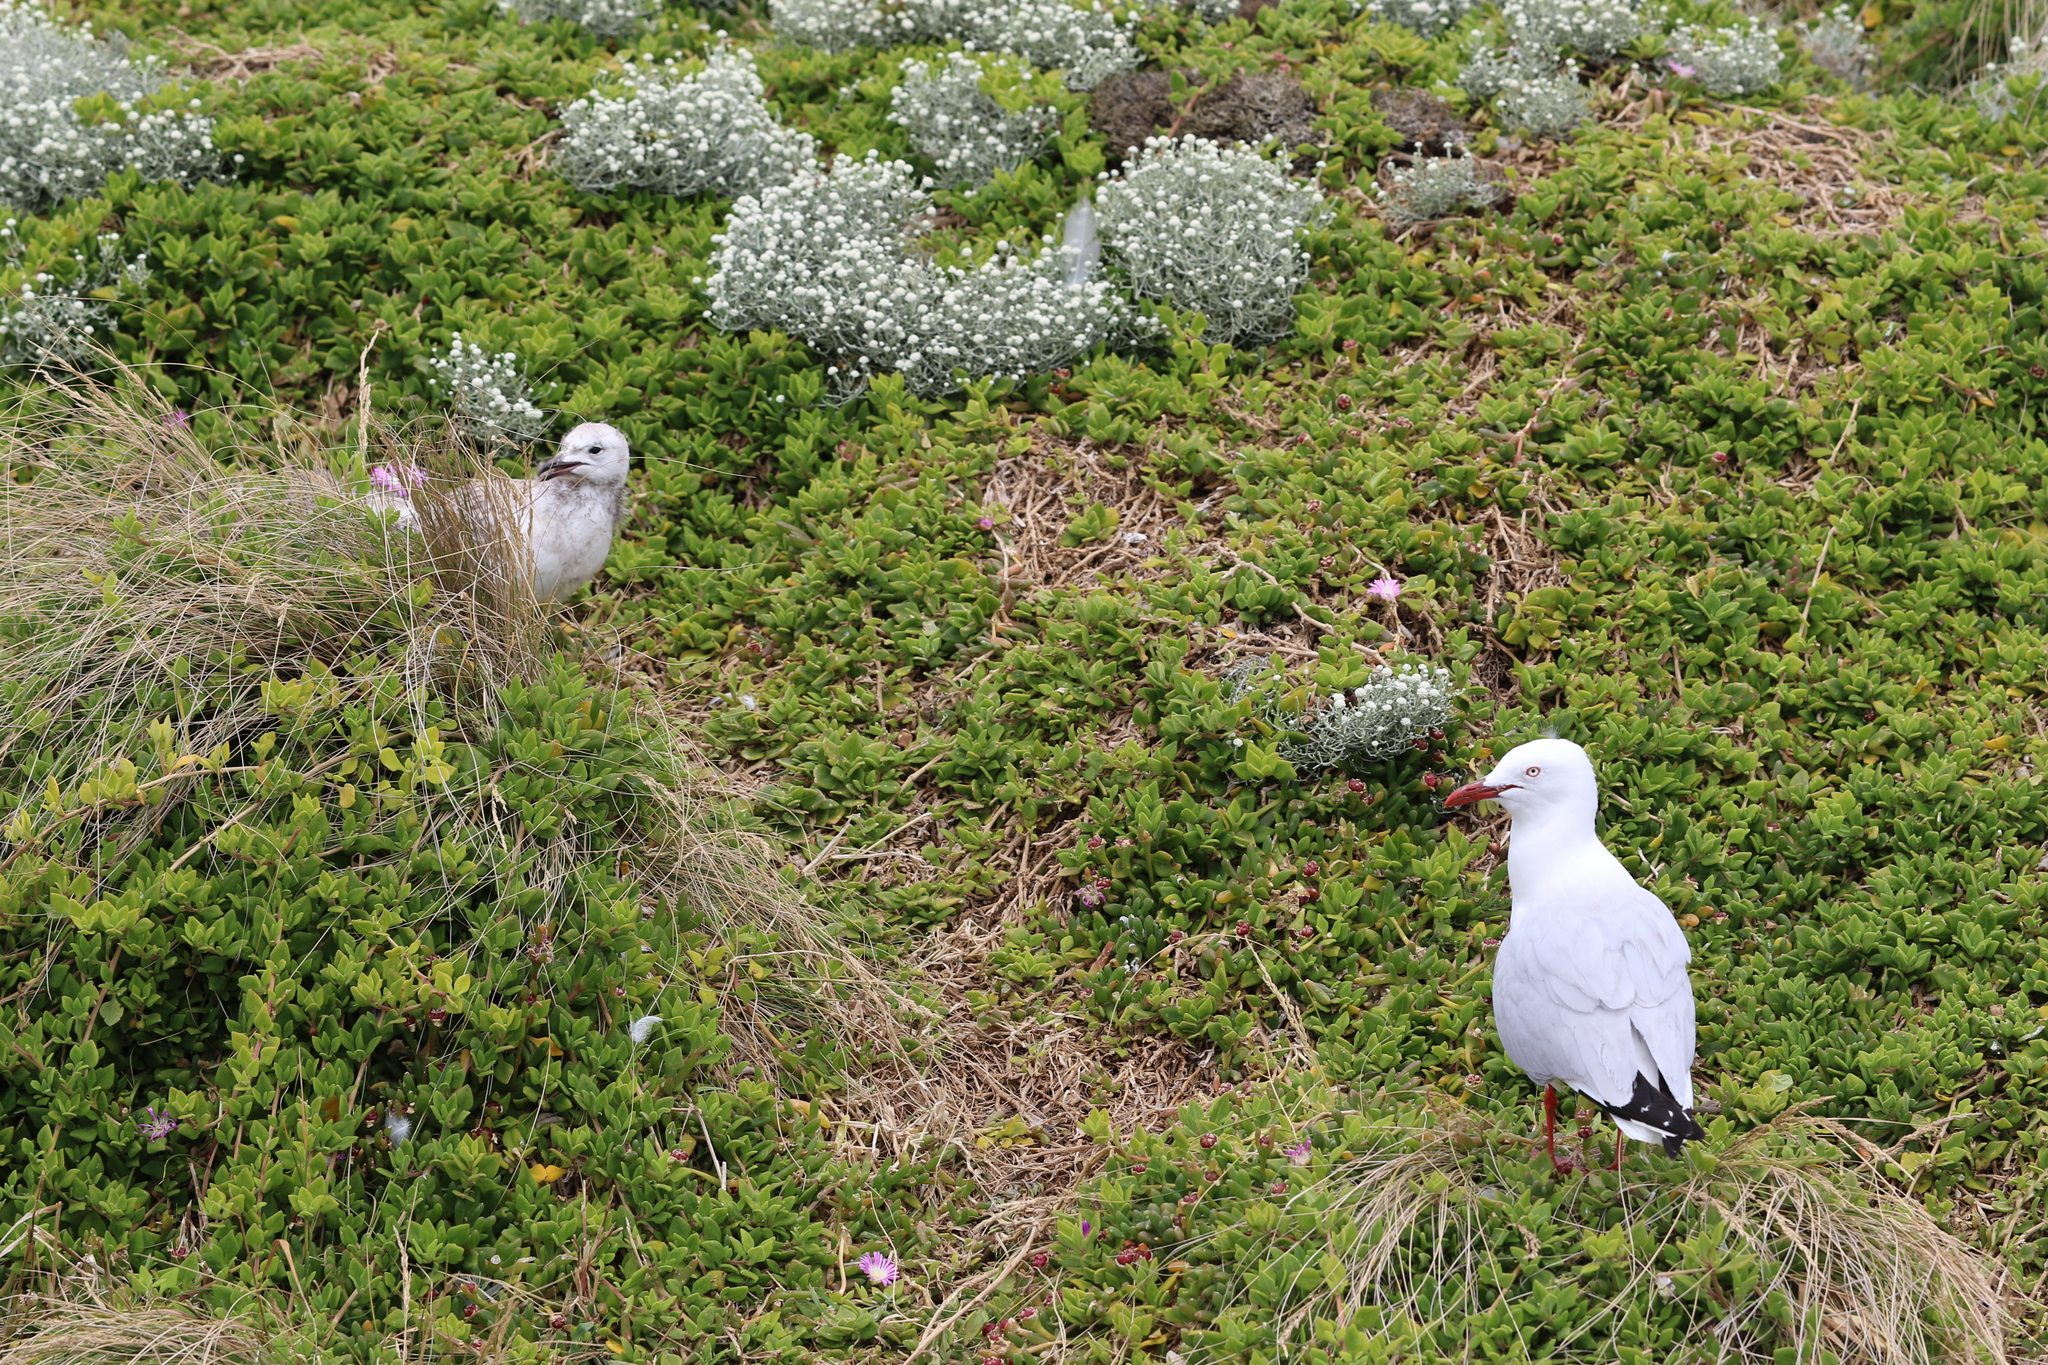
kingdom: Animalia
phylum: Chordata
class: Aves
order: Charadriiformes
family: Laridae
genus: Chroicocephalus
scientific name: Chroicocephalus novaehollandiae
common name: Silver gull
